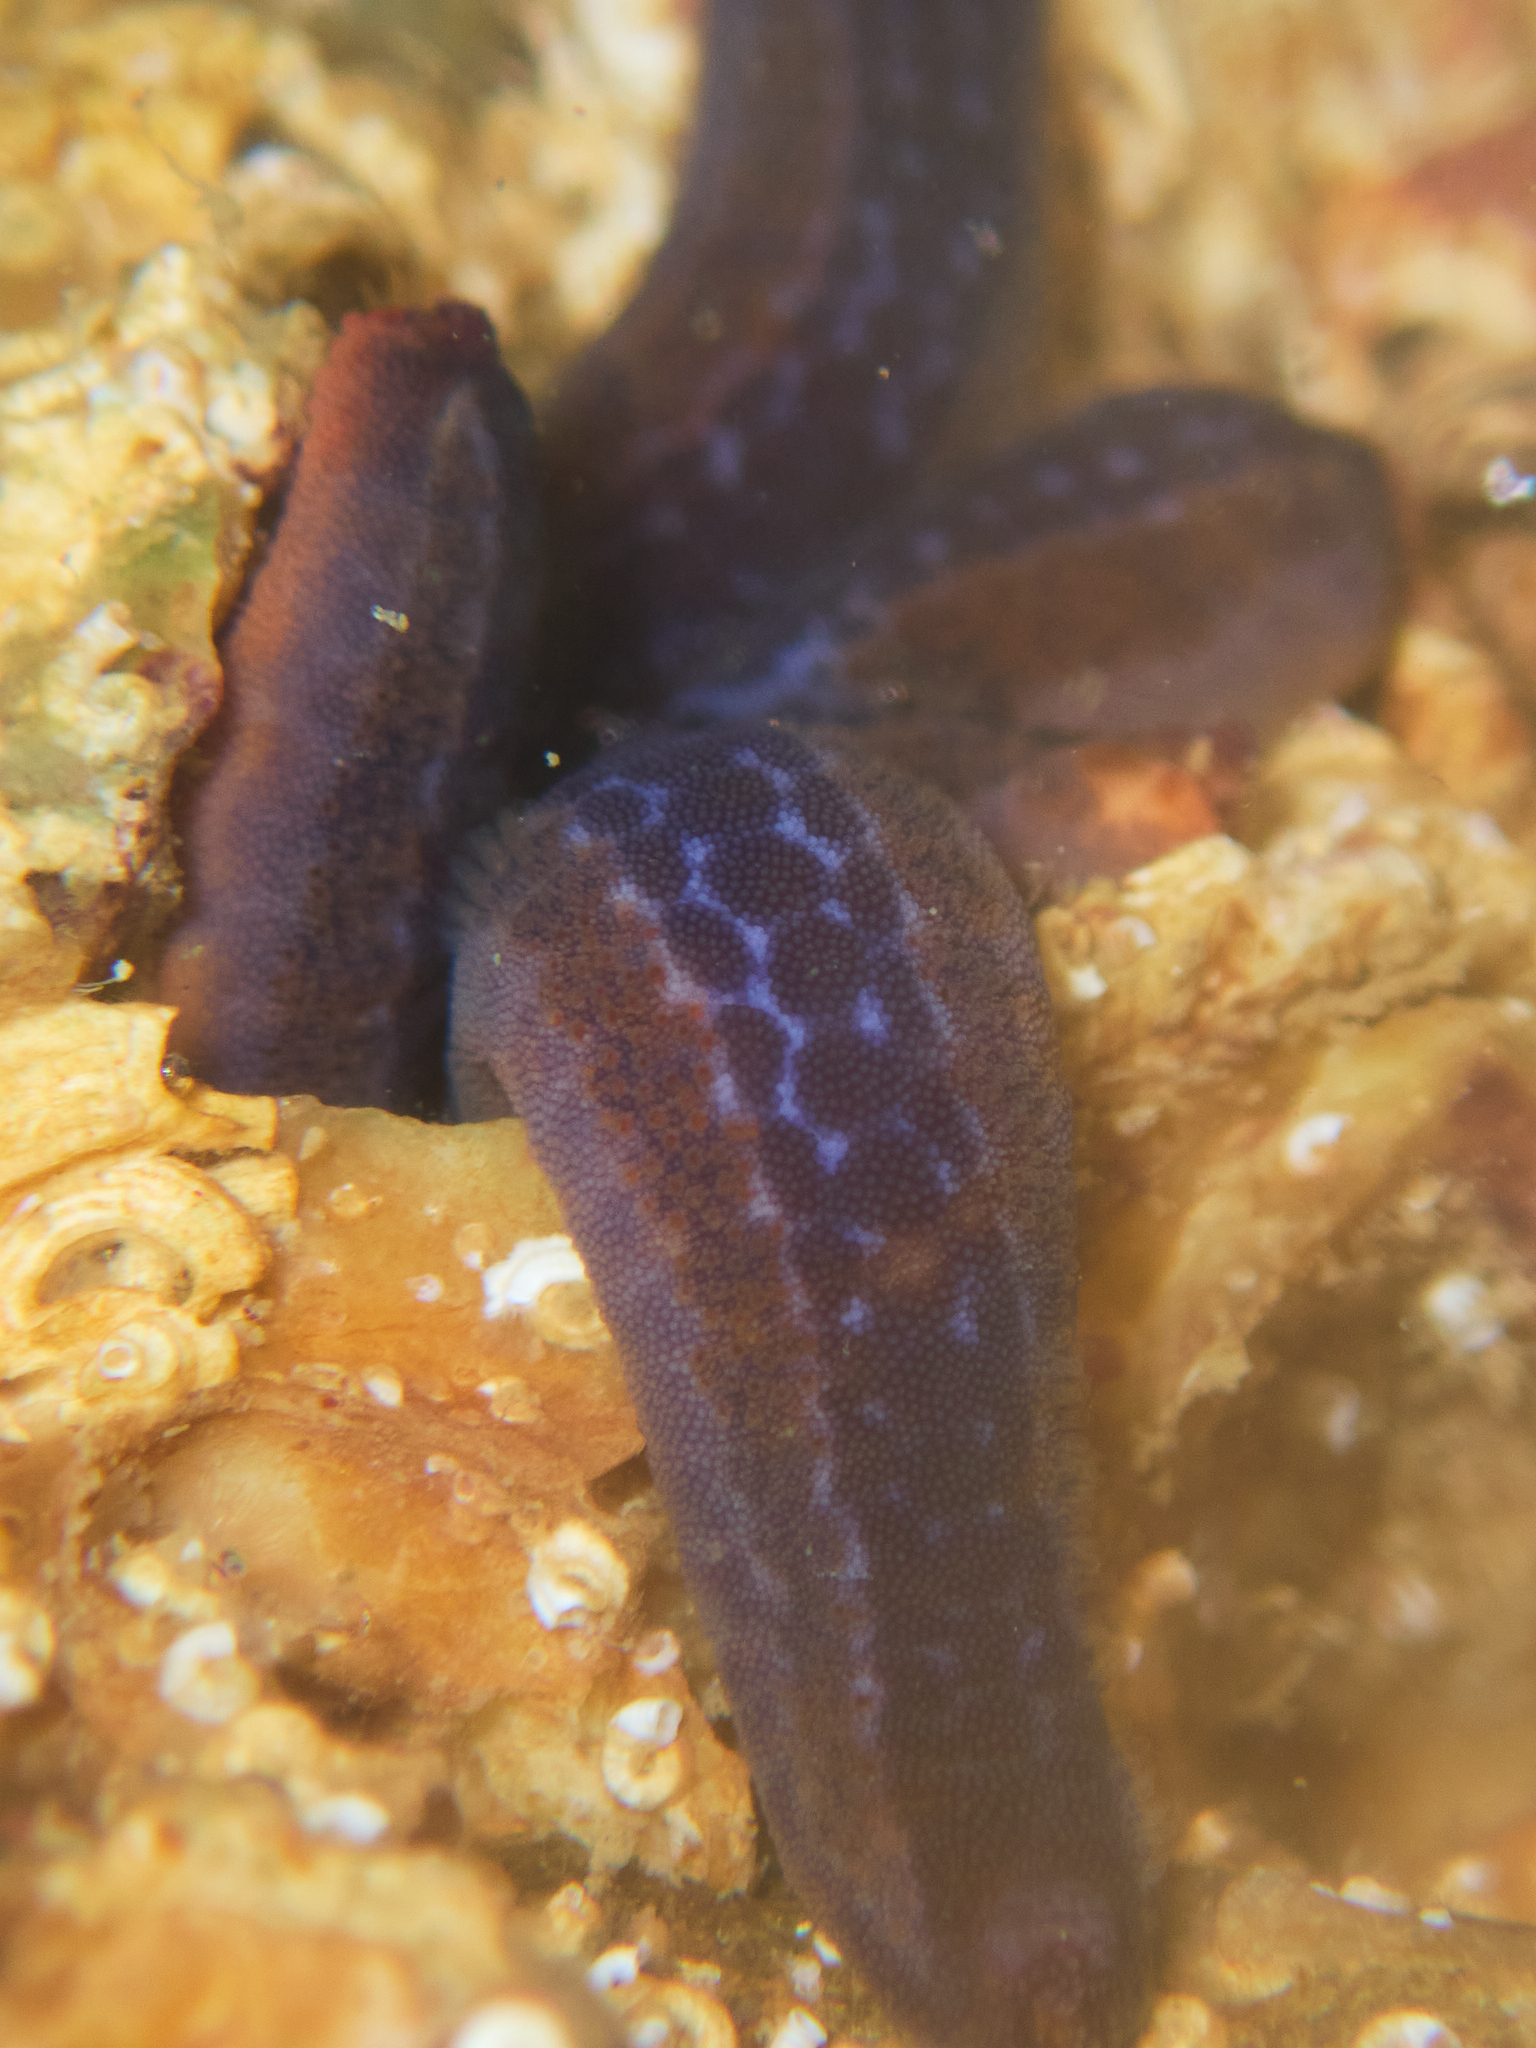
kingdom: Animalia
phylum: Echinodermata
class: Asteroidea
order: Valvatida
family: Ophidiasteridae
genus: Phataria
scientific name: Phataria unifascialis
